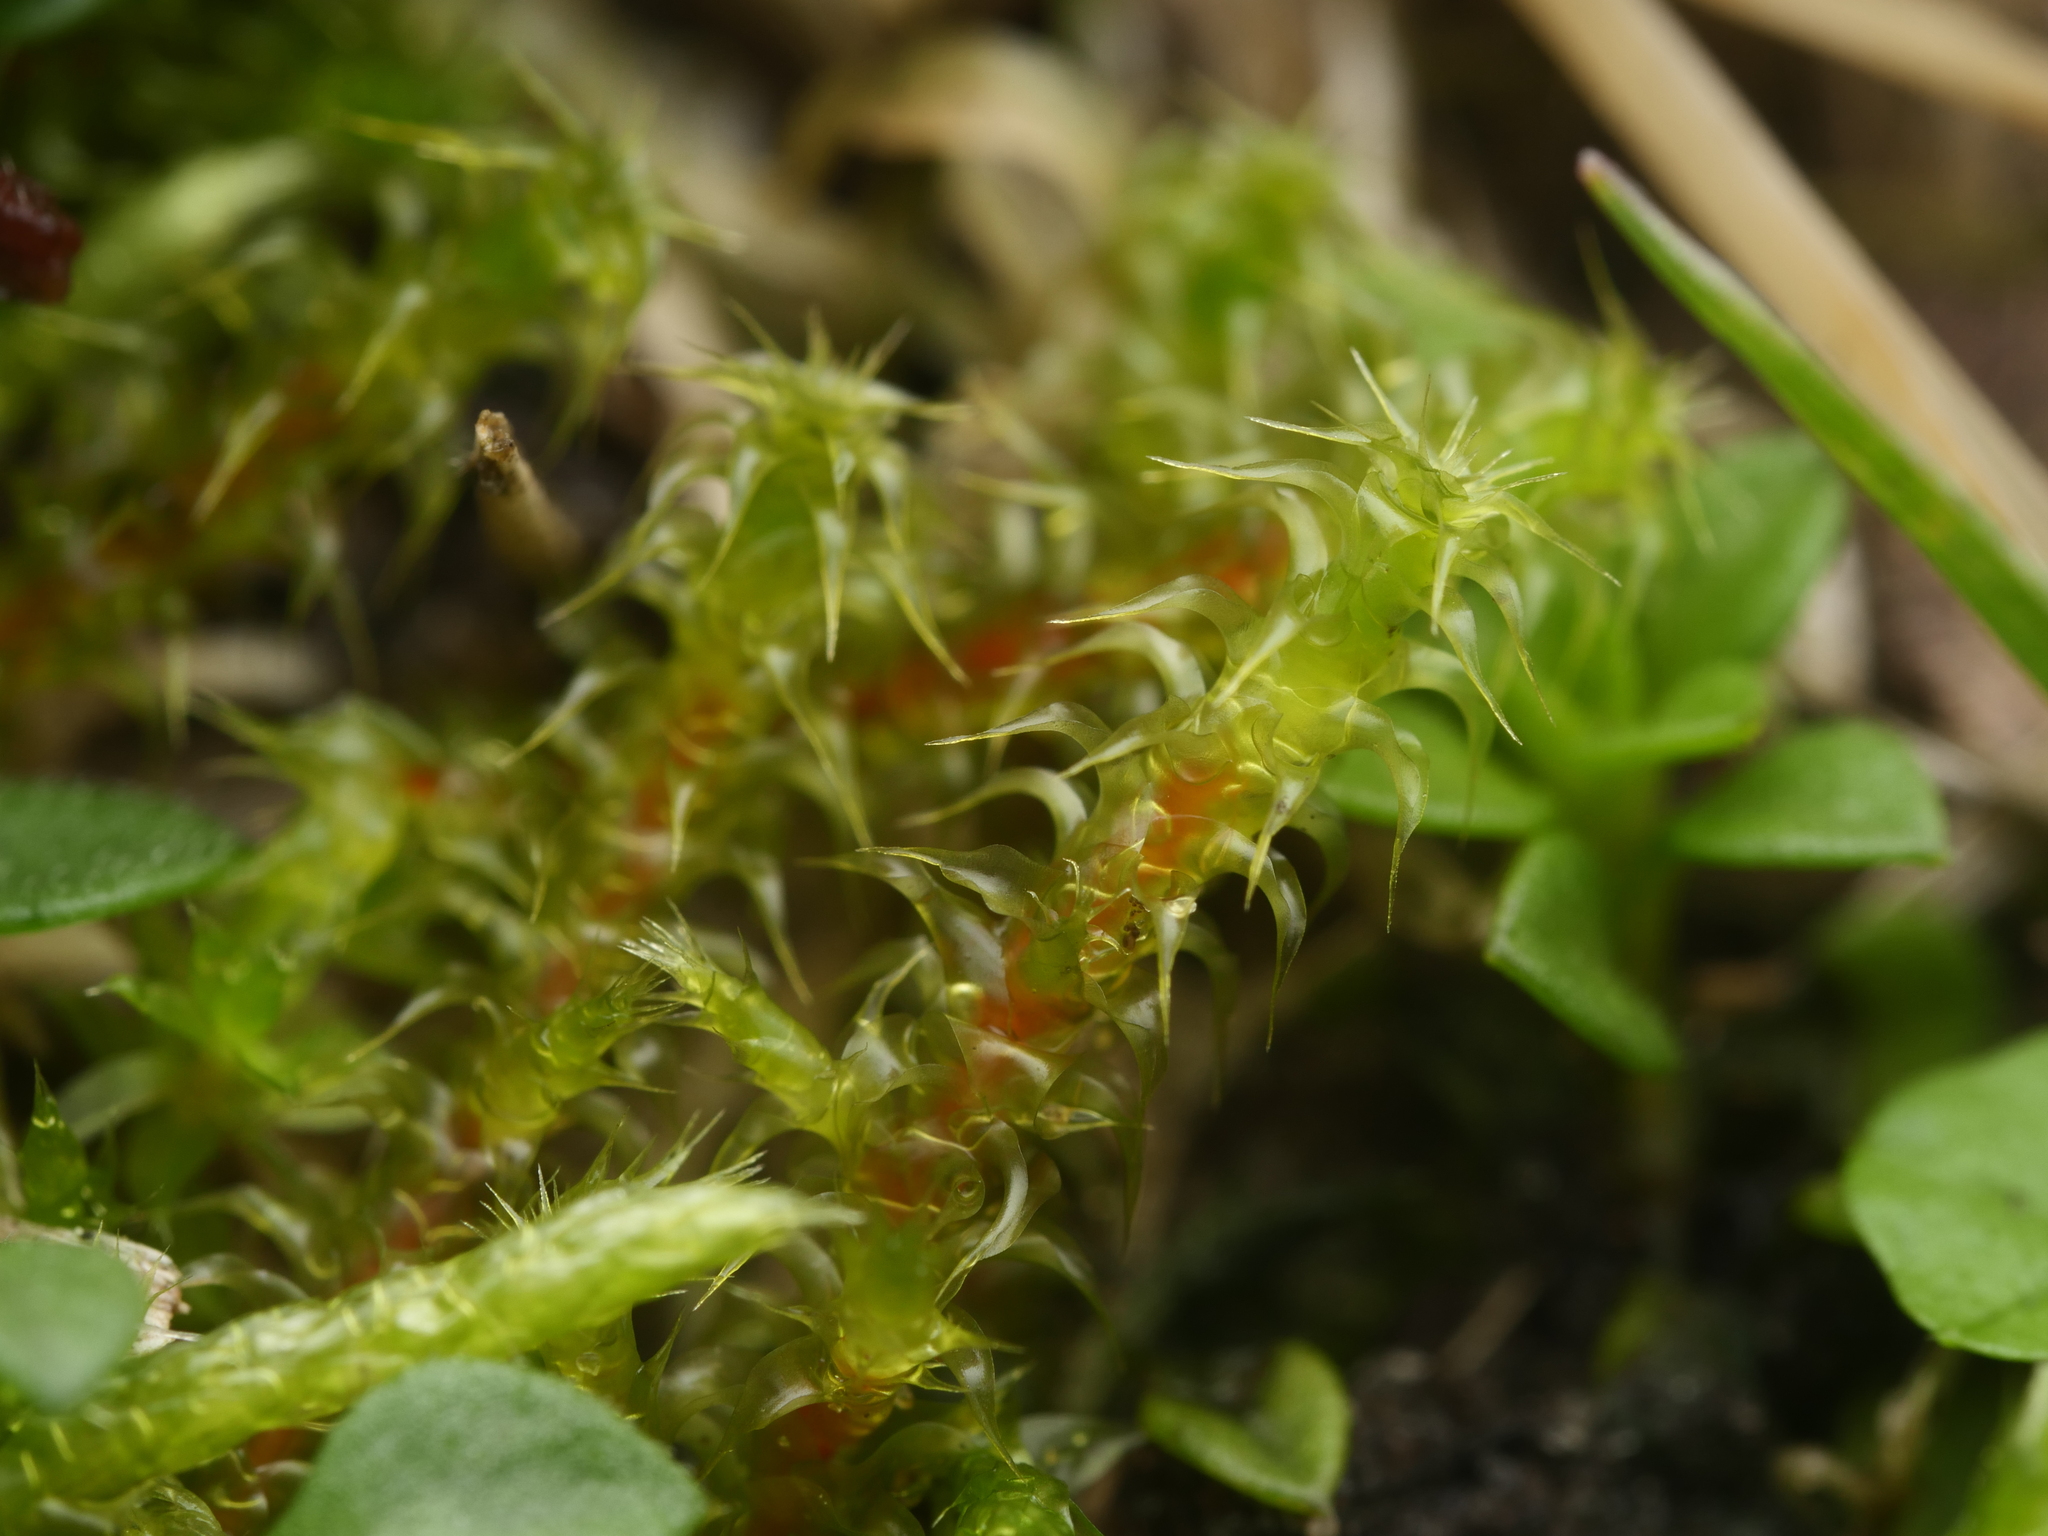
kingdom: Plantae
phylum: Bryophyta
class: Bryopsida
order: Hypnales
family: Hylocomiaceae
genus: Rhytidiadelphus
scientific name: Rhytidiadelphus squarrosus
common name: Springy turf-moss
